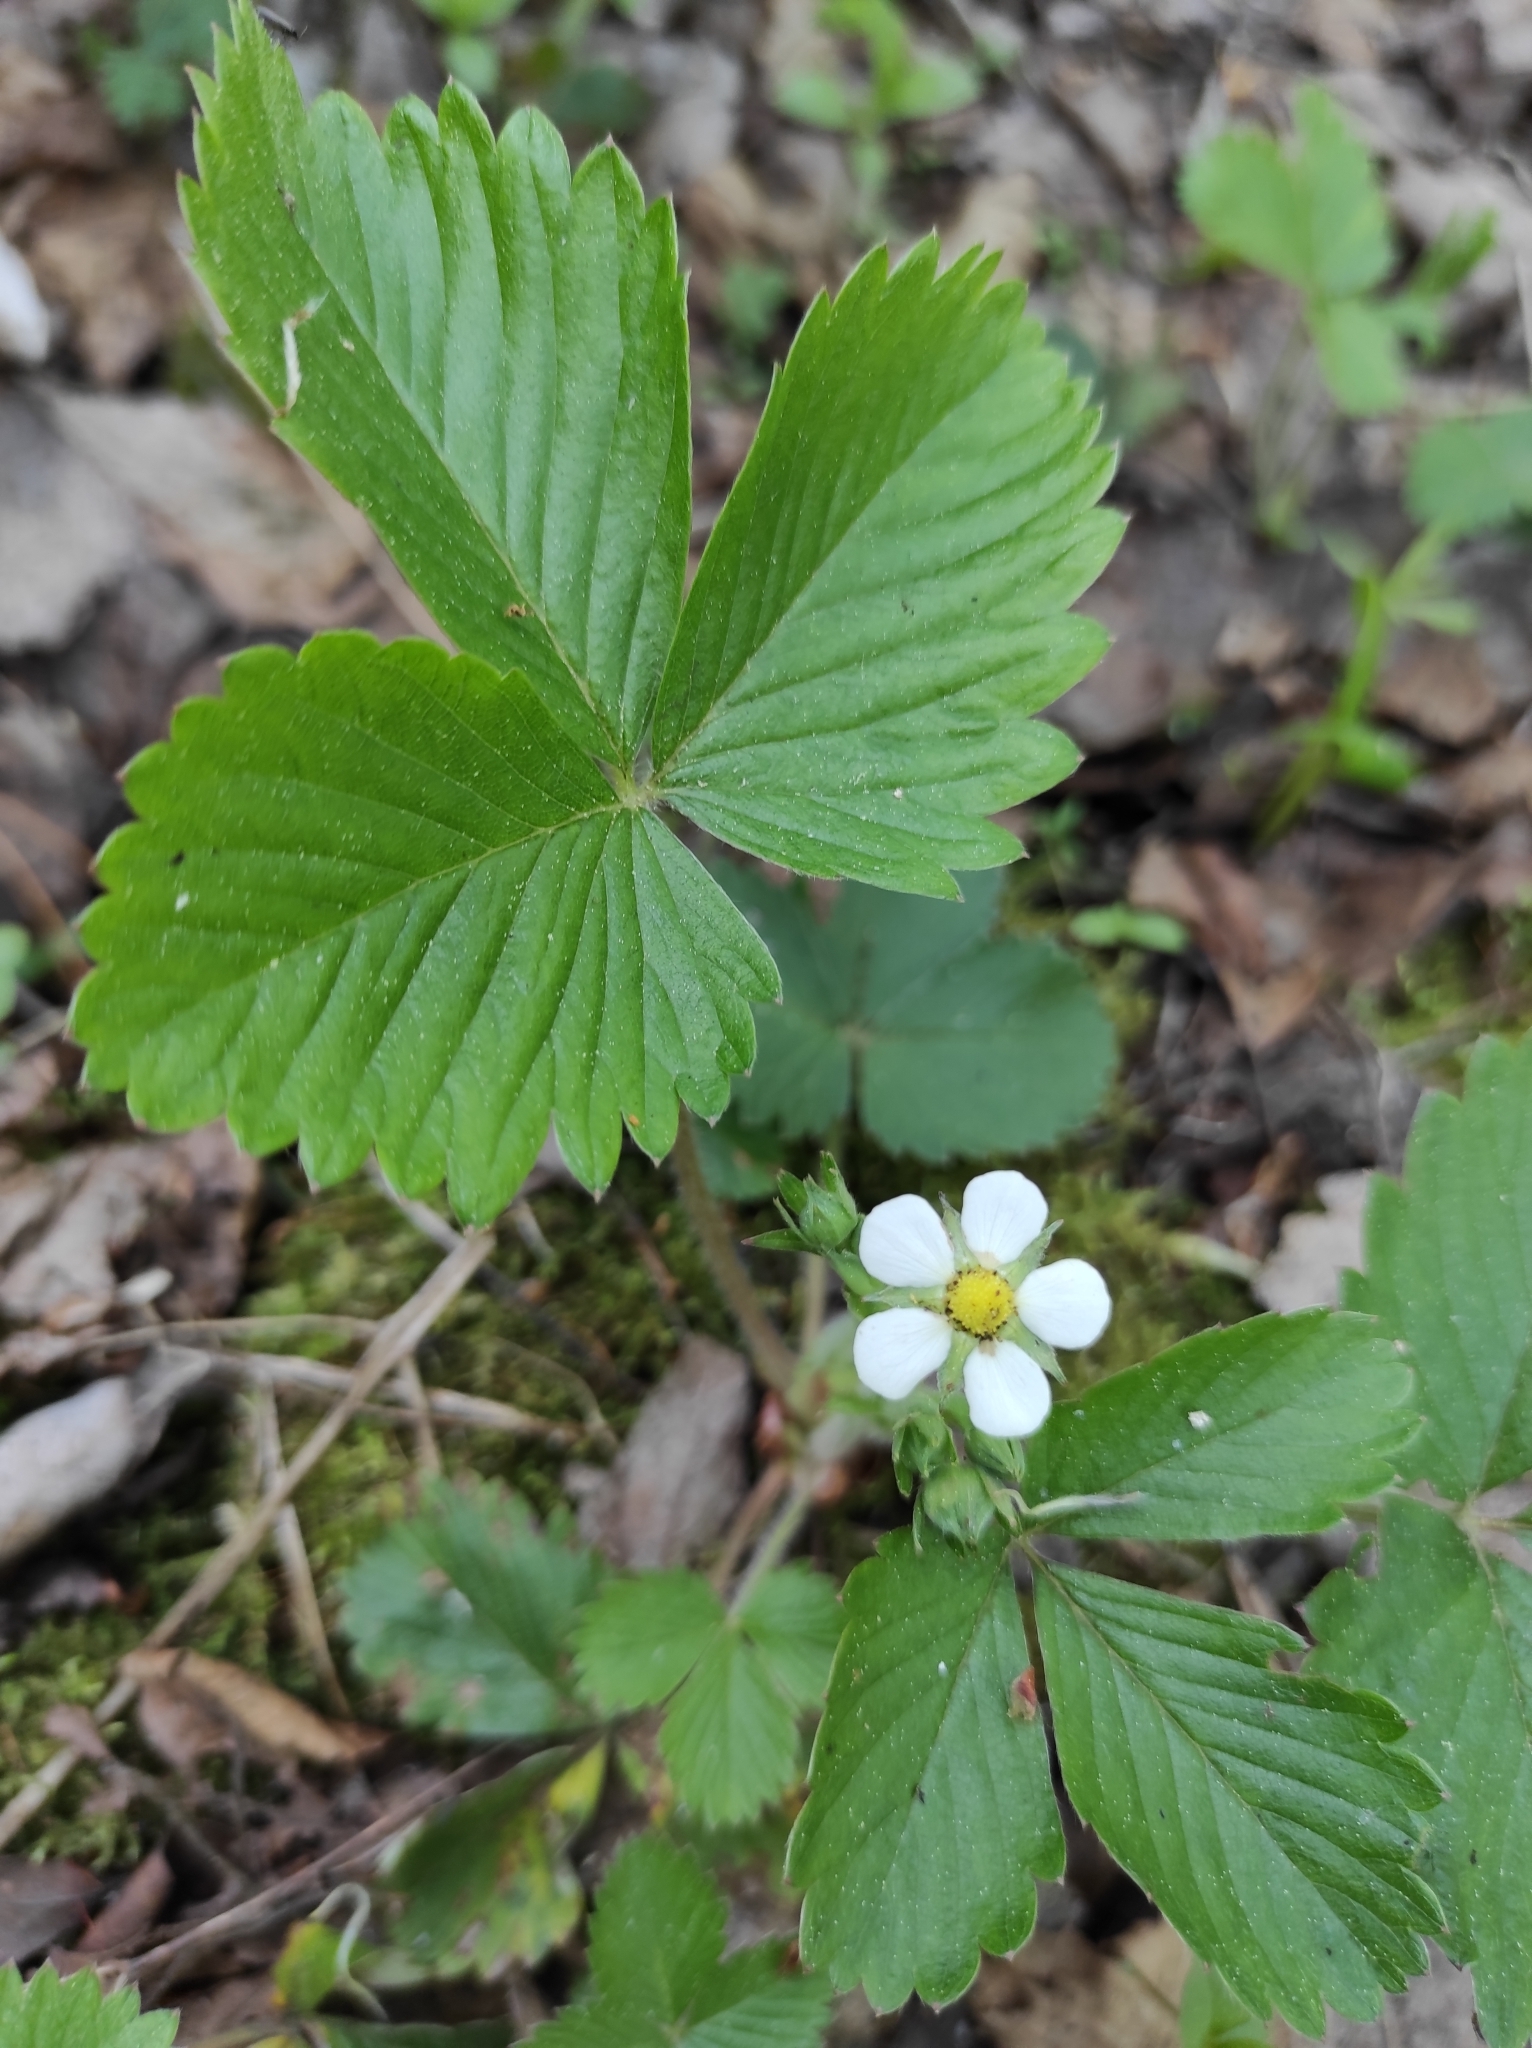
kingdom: Plantae
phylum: Tracheophyta
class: Magnoliopsida
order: Rosales
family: Rosaceae
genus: Fragaria
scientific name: Fragaria vesca
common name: Wild strawberry
